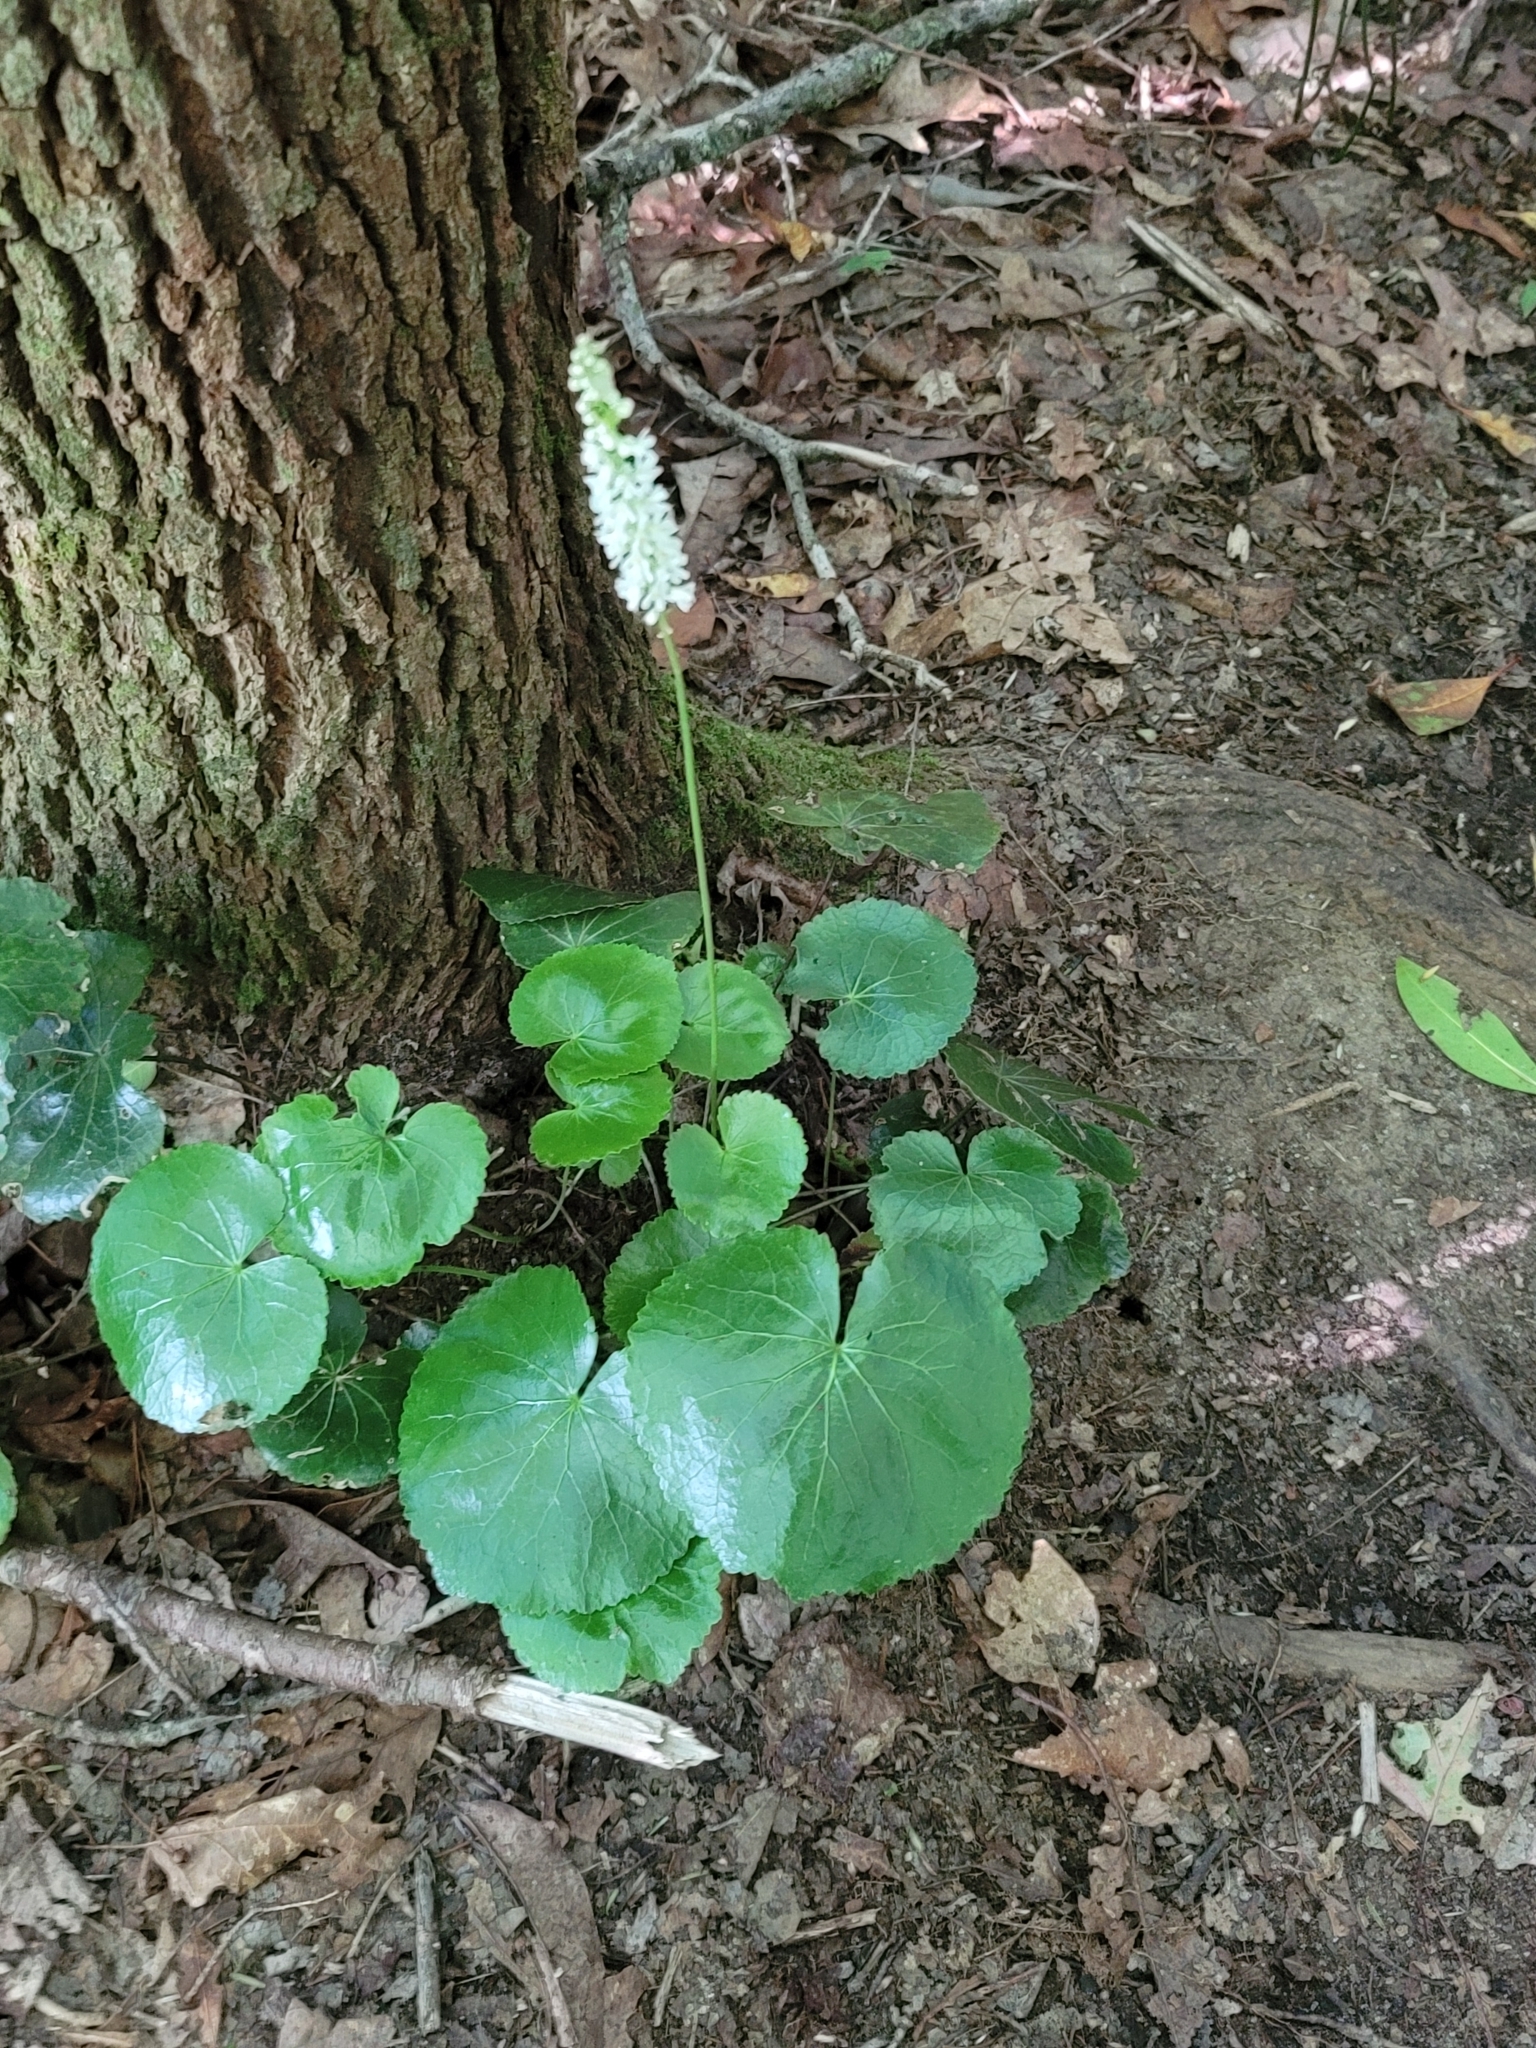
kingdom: Plantae
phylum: Tracheophyta
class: Magnoliopsida
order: Ericales
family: Diapensiaceae
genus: Galax
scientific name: Galax urceolata
